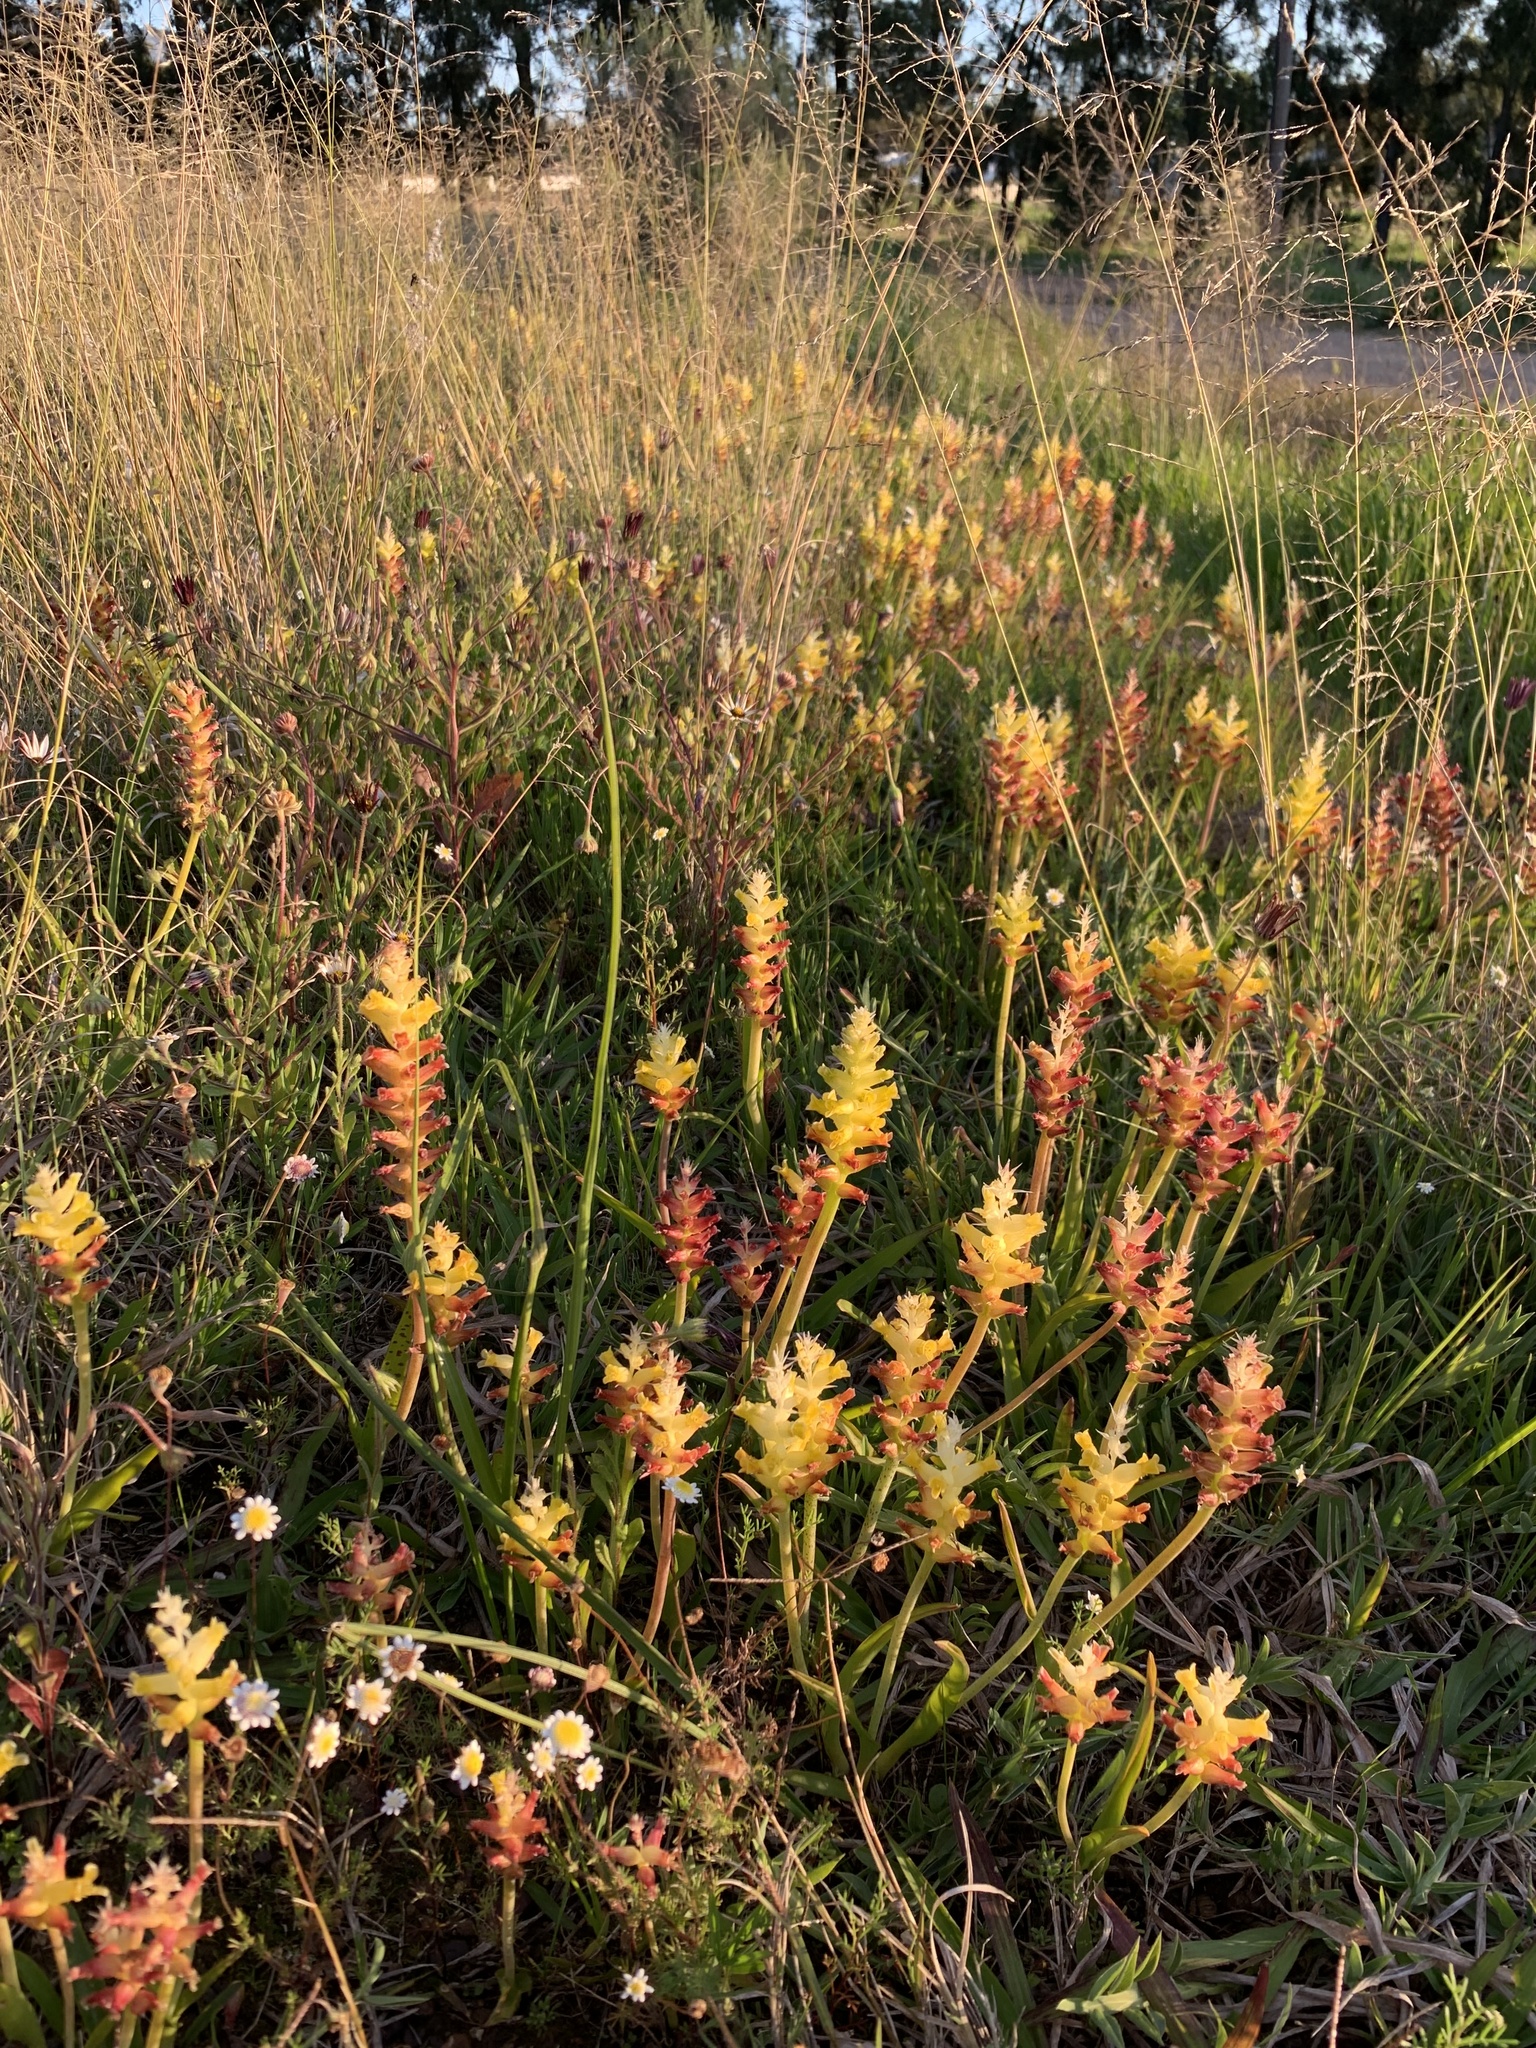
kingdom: Plantae
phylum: Tracheophyta
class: Liliopsida
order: Asparagales
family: Asparagaceae
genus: Lachenalia
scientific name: Lachenalia lutea
